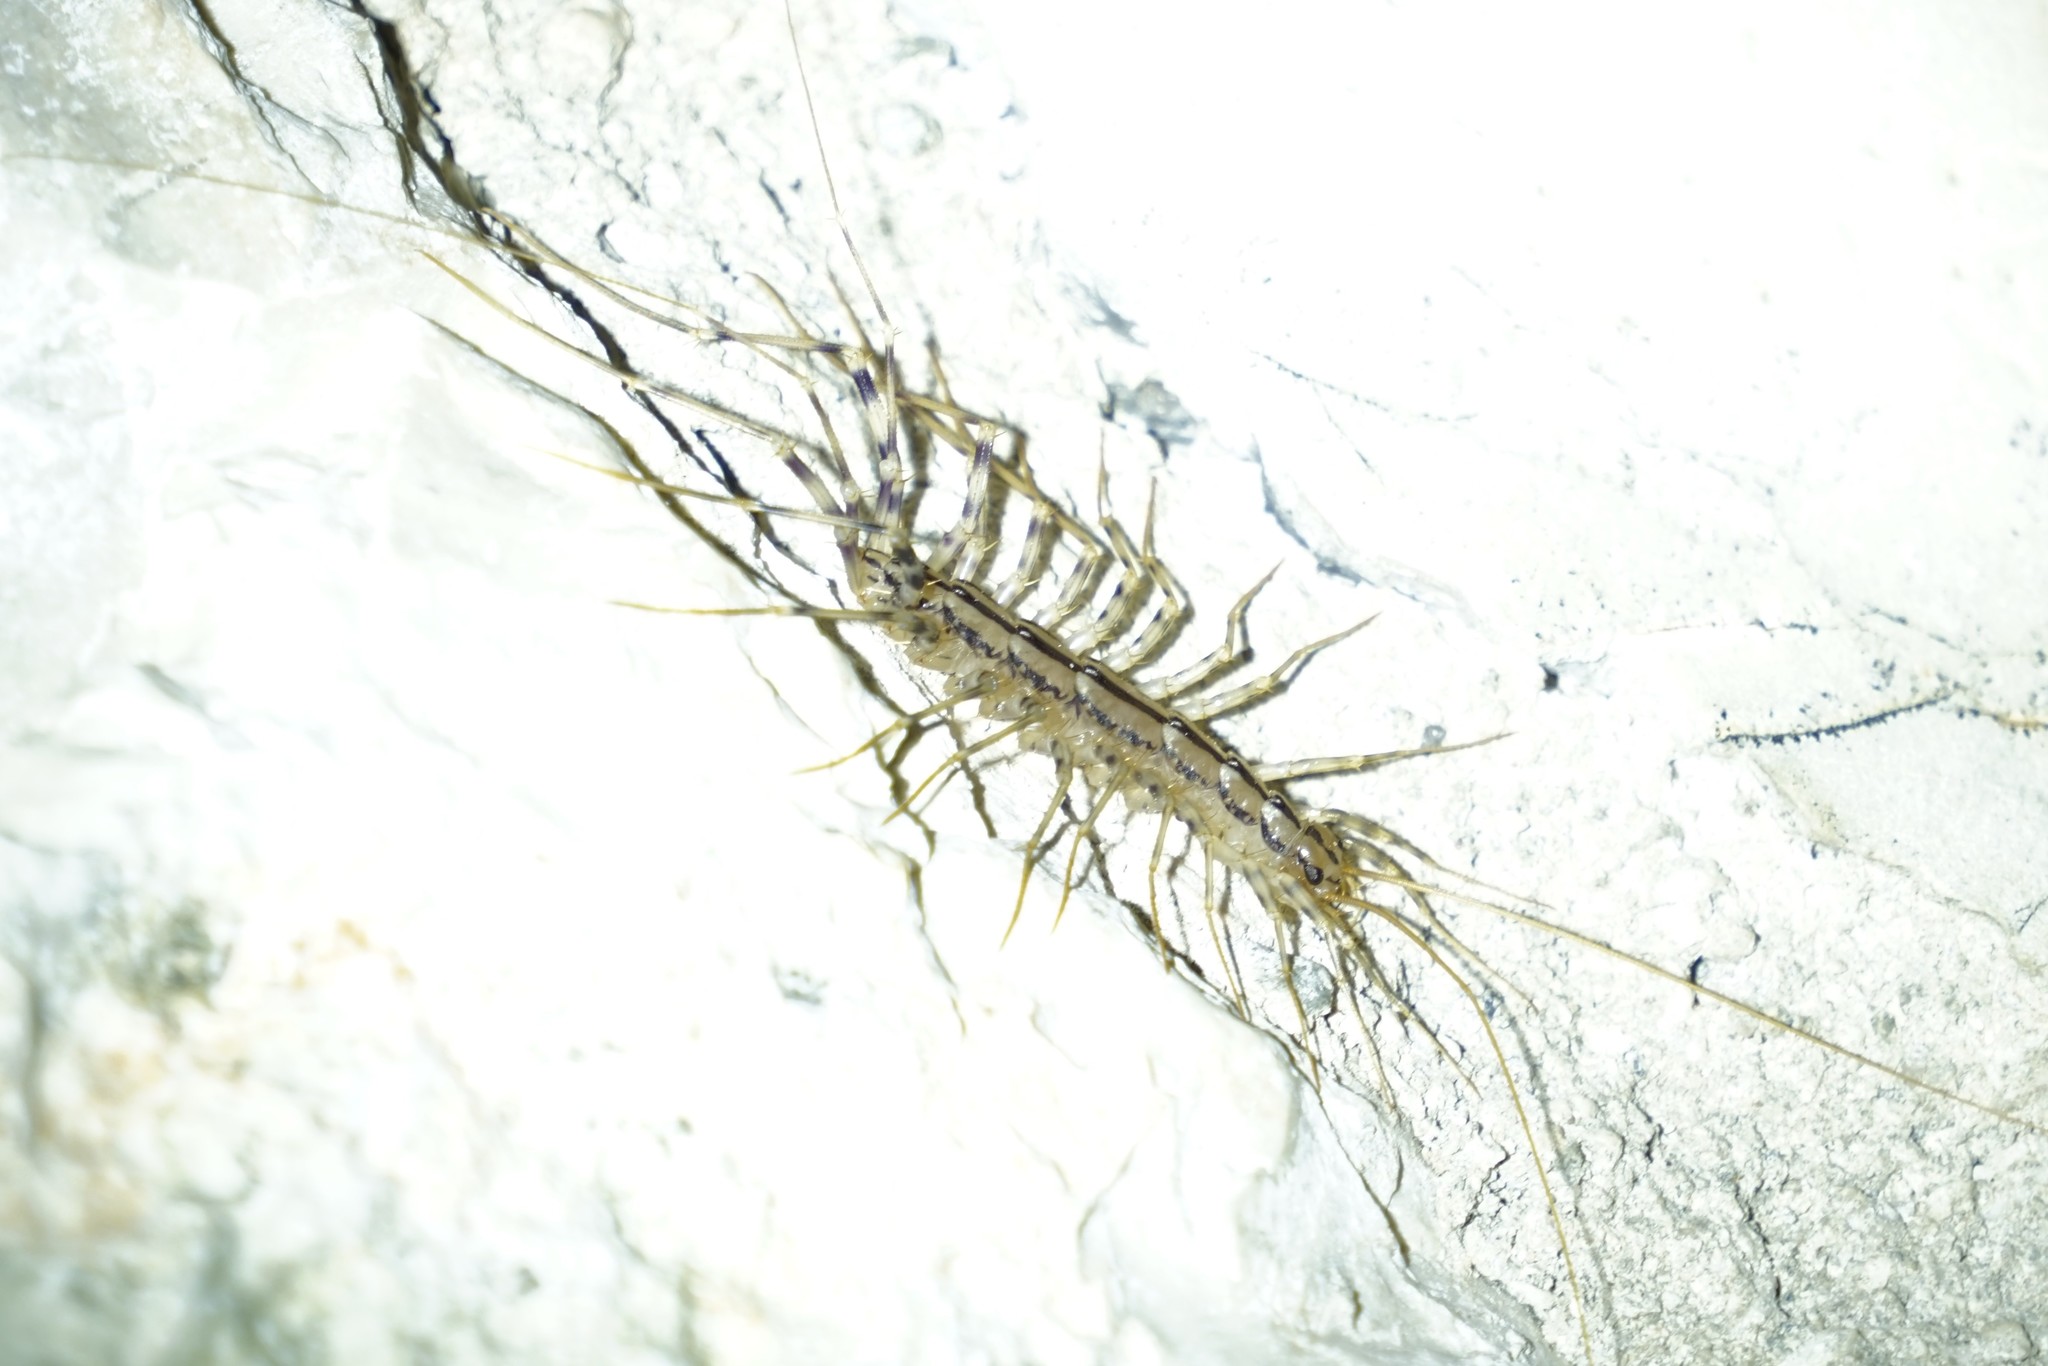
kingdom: Animalia
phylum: Arthropoda
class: Chilopoda
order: Scutigeromorpha
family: Scutigeridae
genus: Scutigera
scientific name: Scutigera coleoptrata
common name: House centipede
